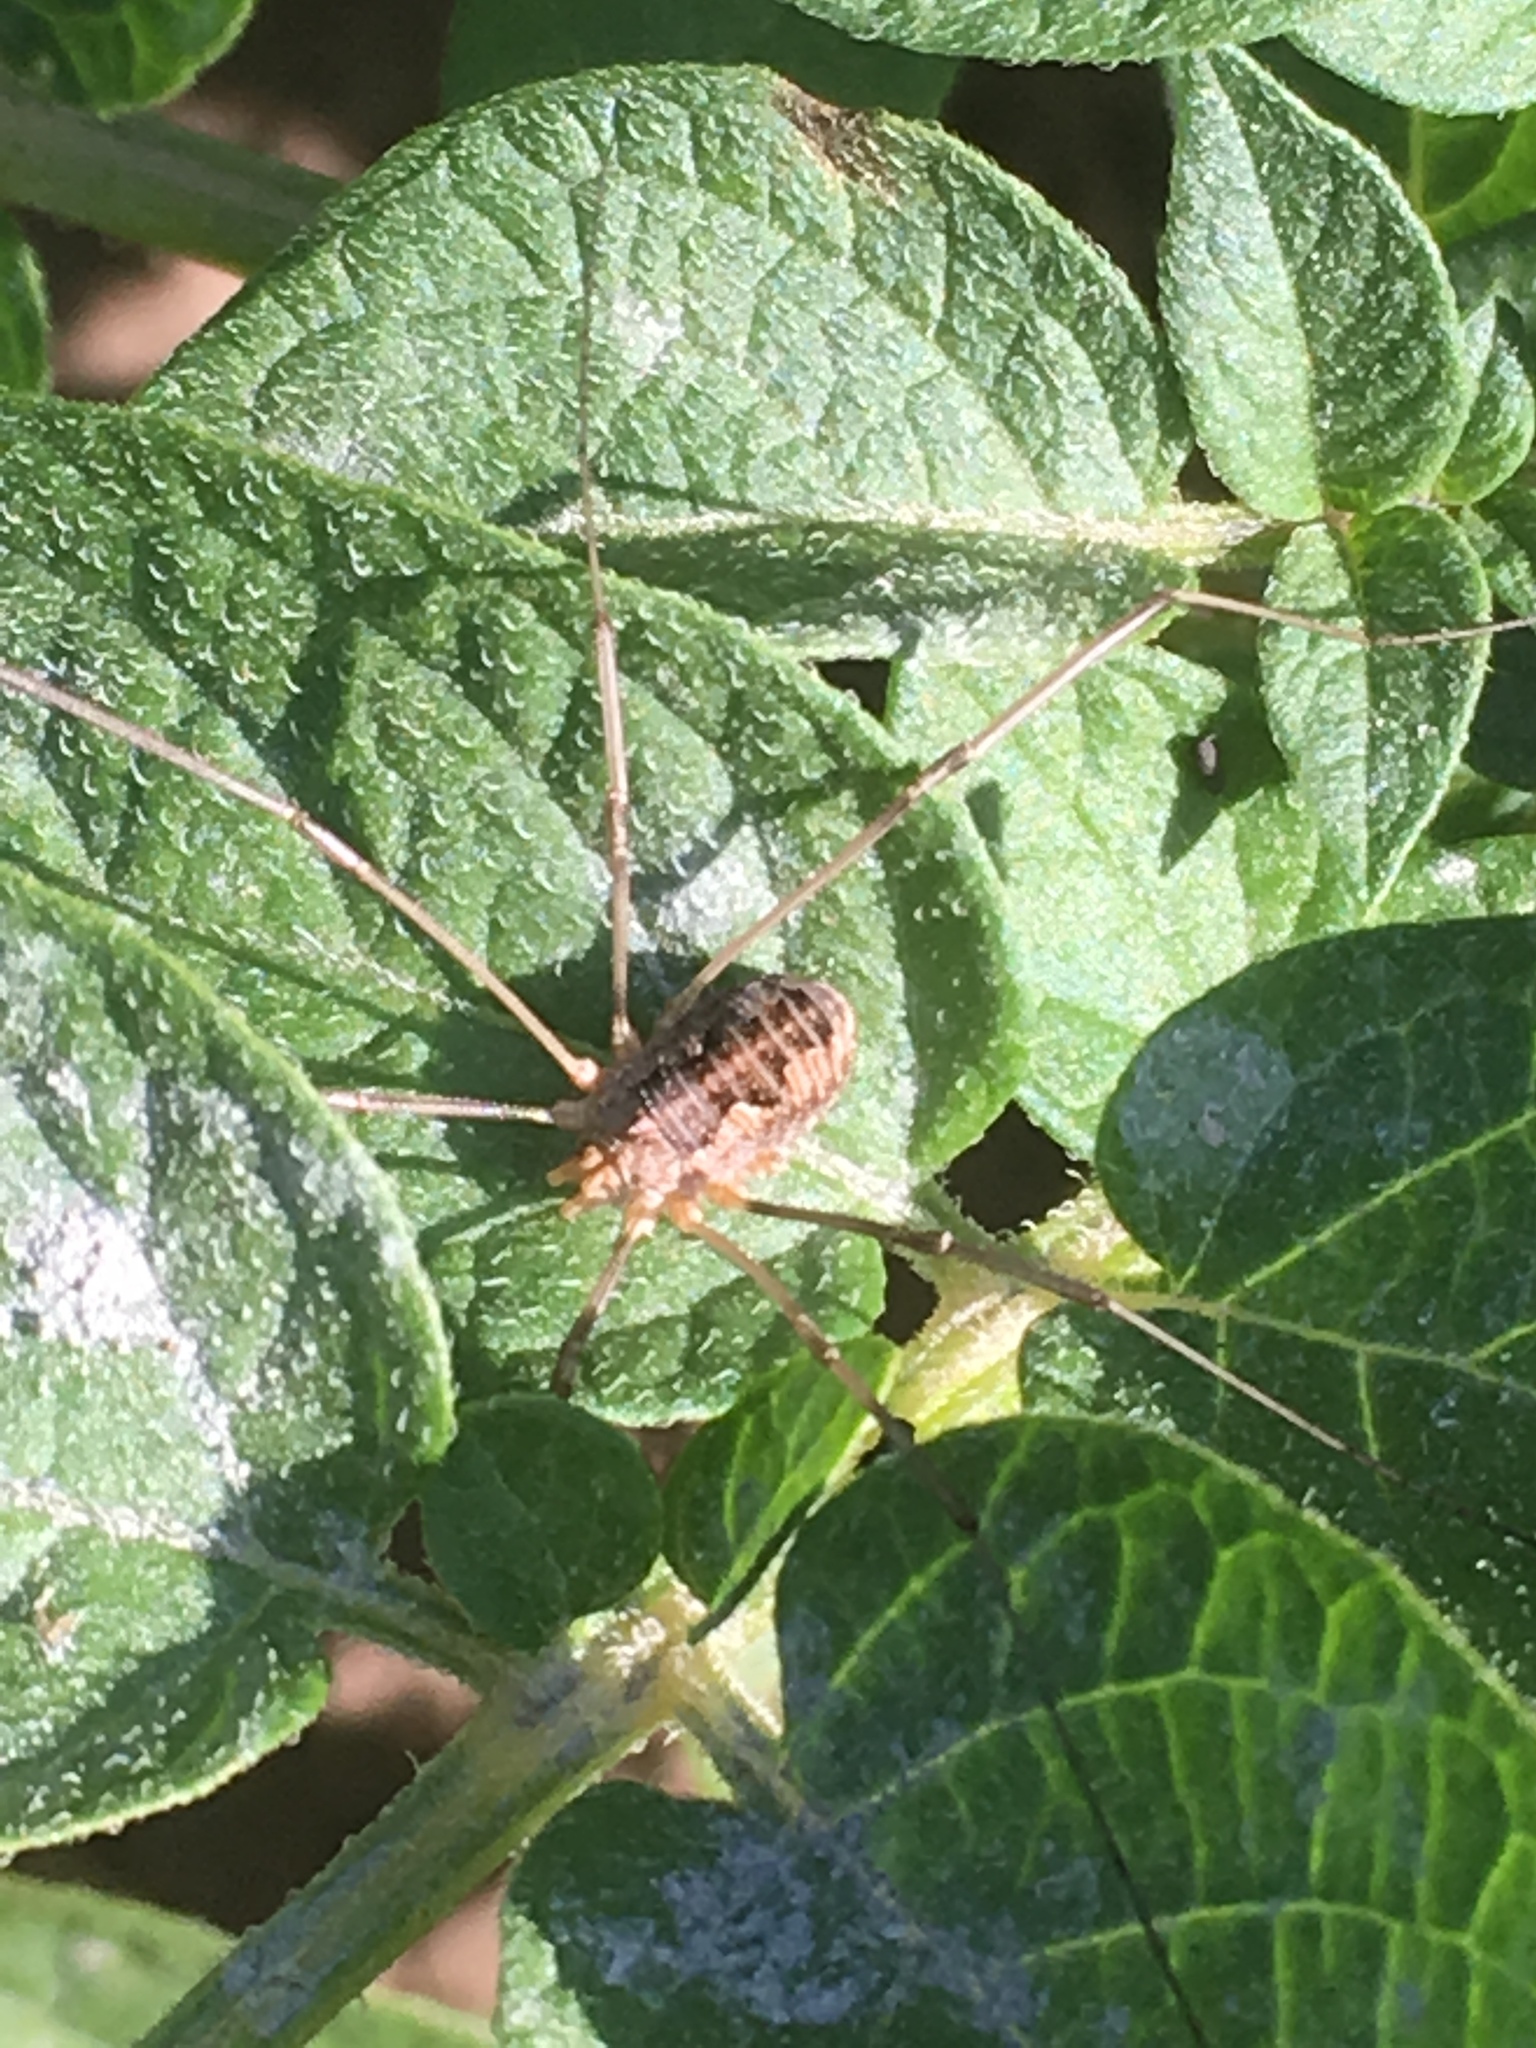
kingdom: Animalia
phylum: Arthropoda
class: Arachnida
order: Opiliones
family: Phalangiidae
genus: Phalangium
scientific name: Phalangium opilio
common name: Daddy longleg
